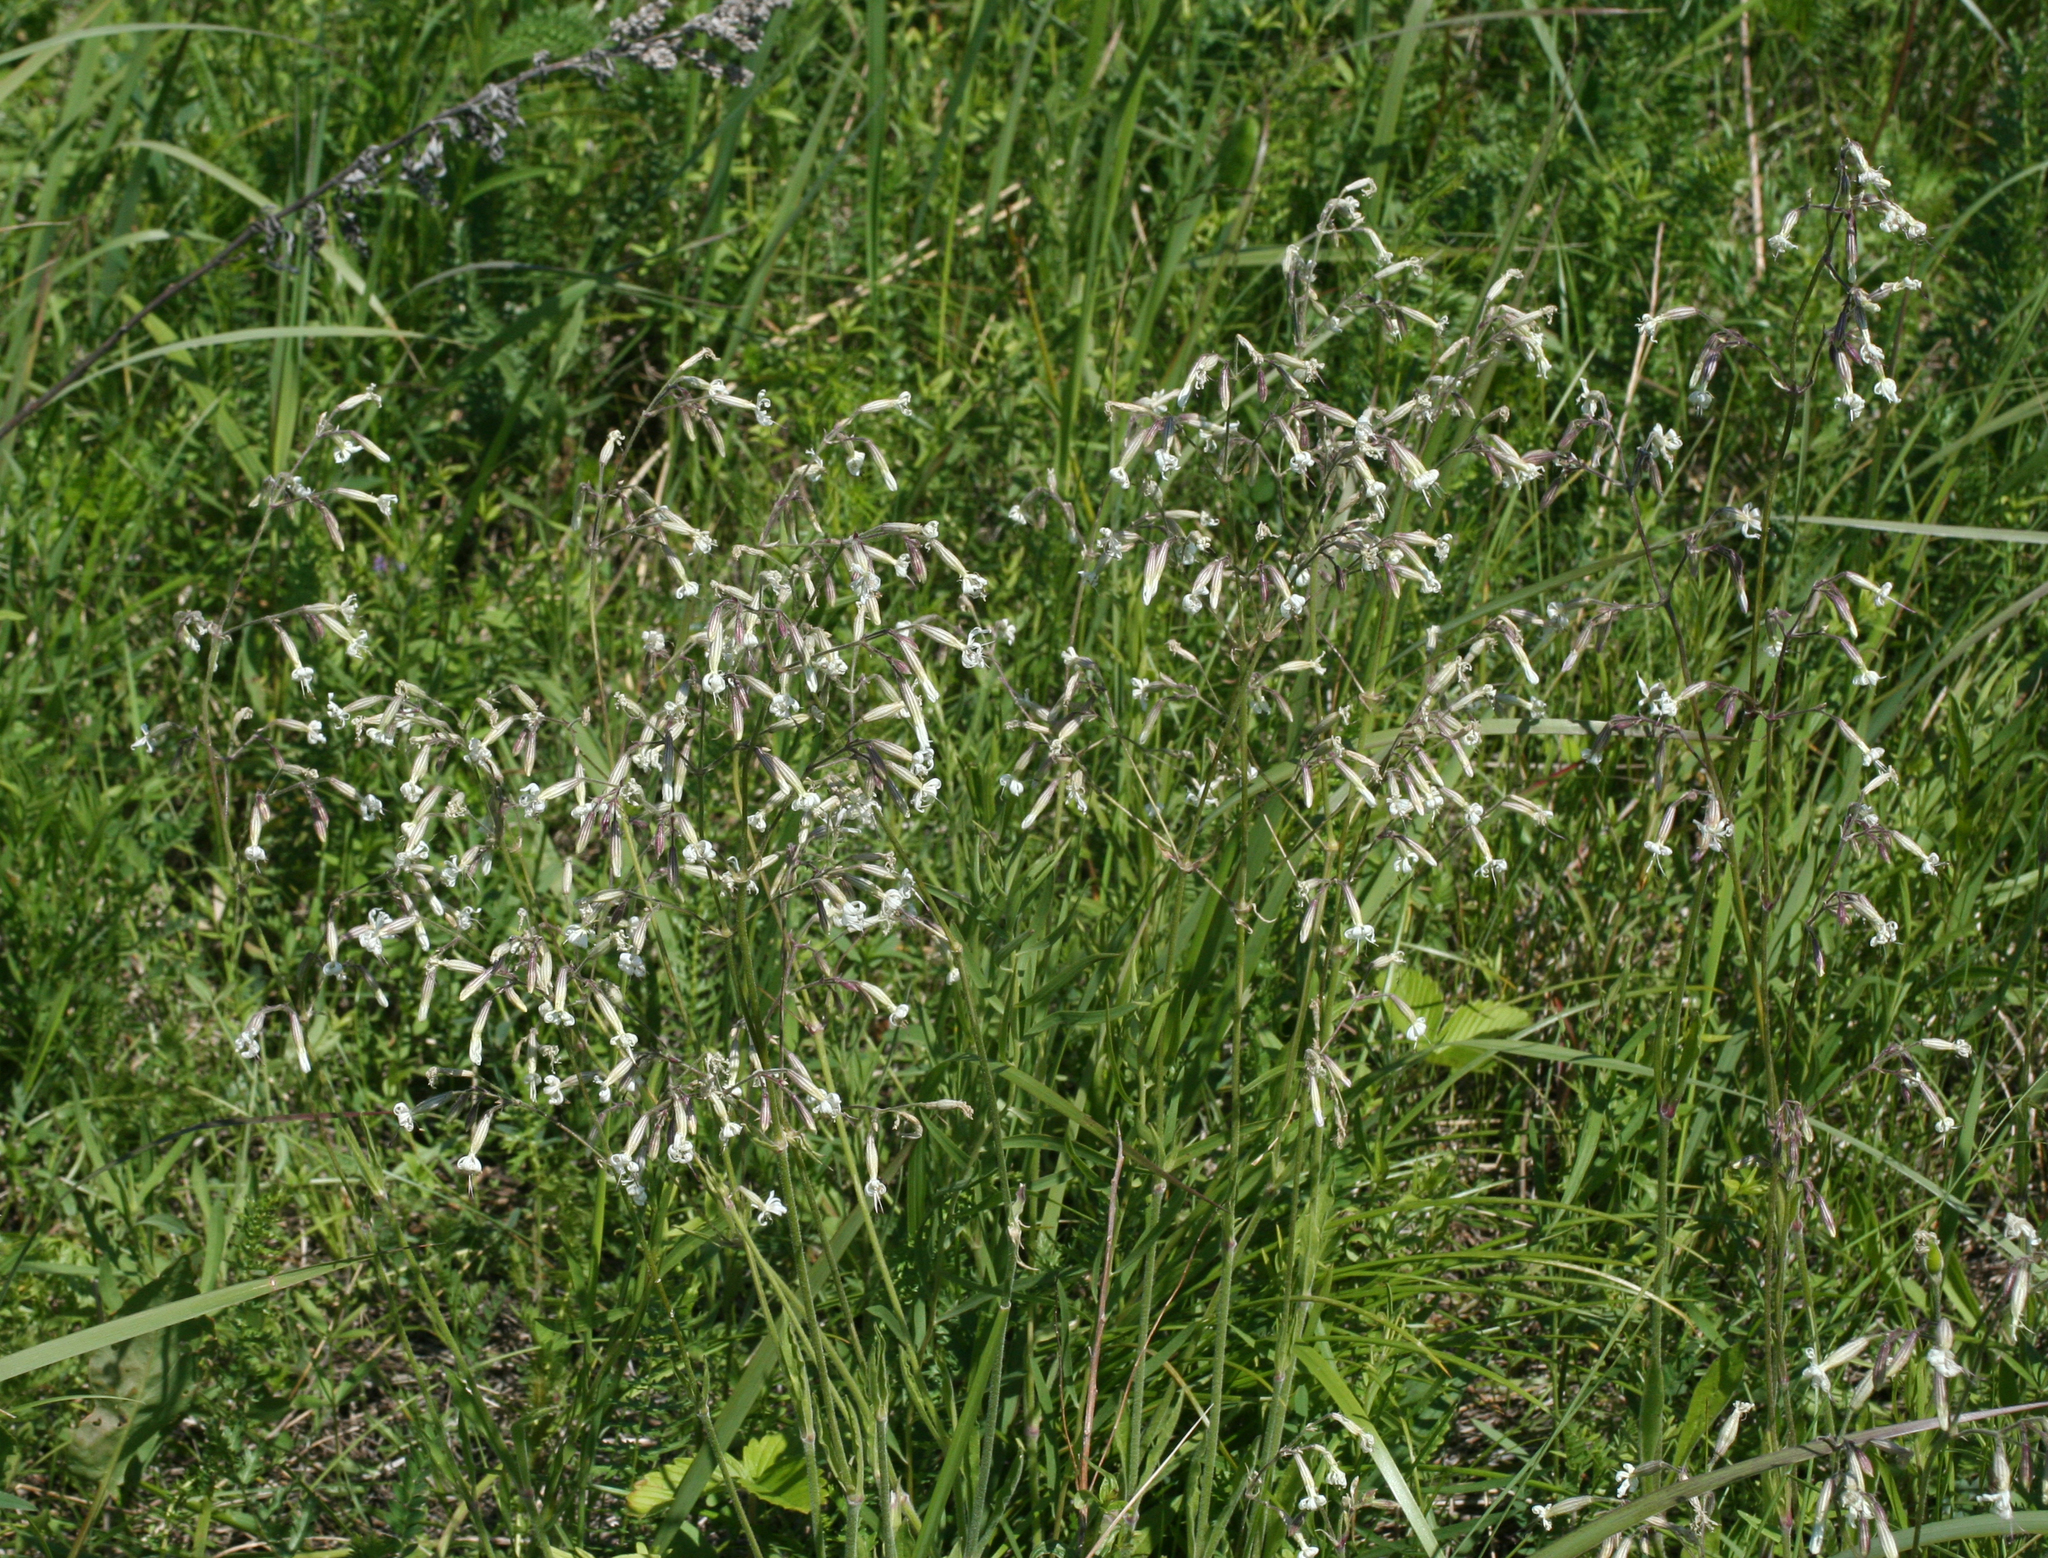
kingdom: Plantae
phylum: Tracheophyta
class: Magnoliopsida
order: Caryophyllales
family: Caryophyllaceae
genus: Silene
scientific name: Silene nutans
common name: Nottingham catchfly
